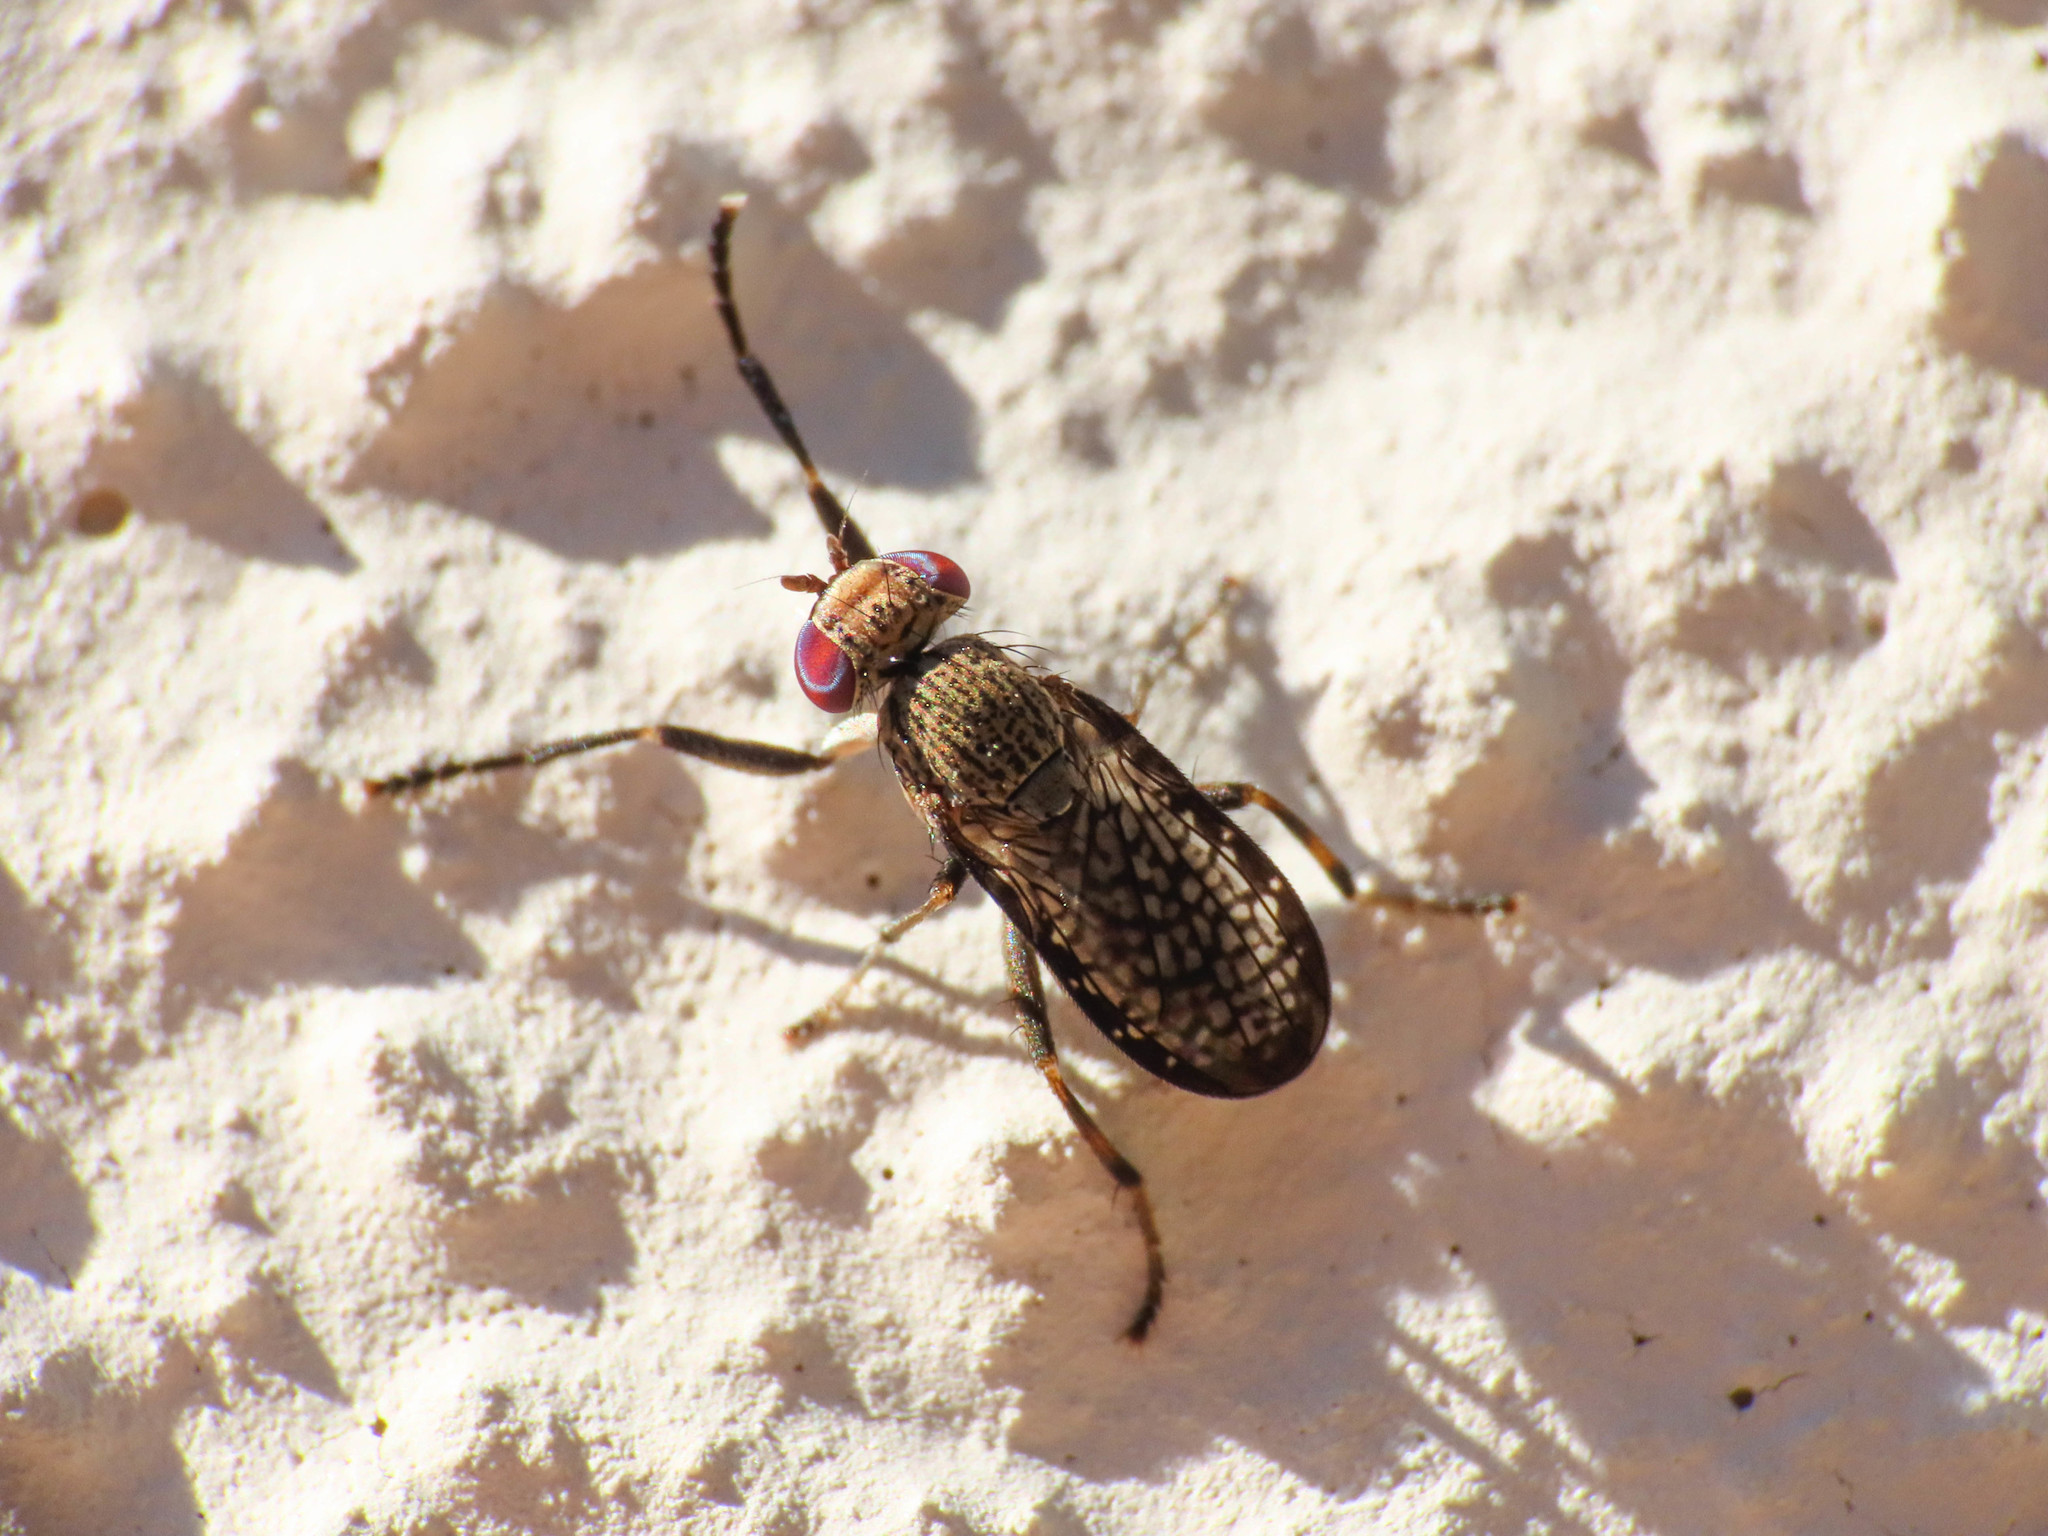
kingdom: Animalia
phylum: Arthropoda
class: Insecta
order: Diptera
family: Sciomyzidae
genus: Pherbellia
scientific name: Pherbellia limbata
